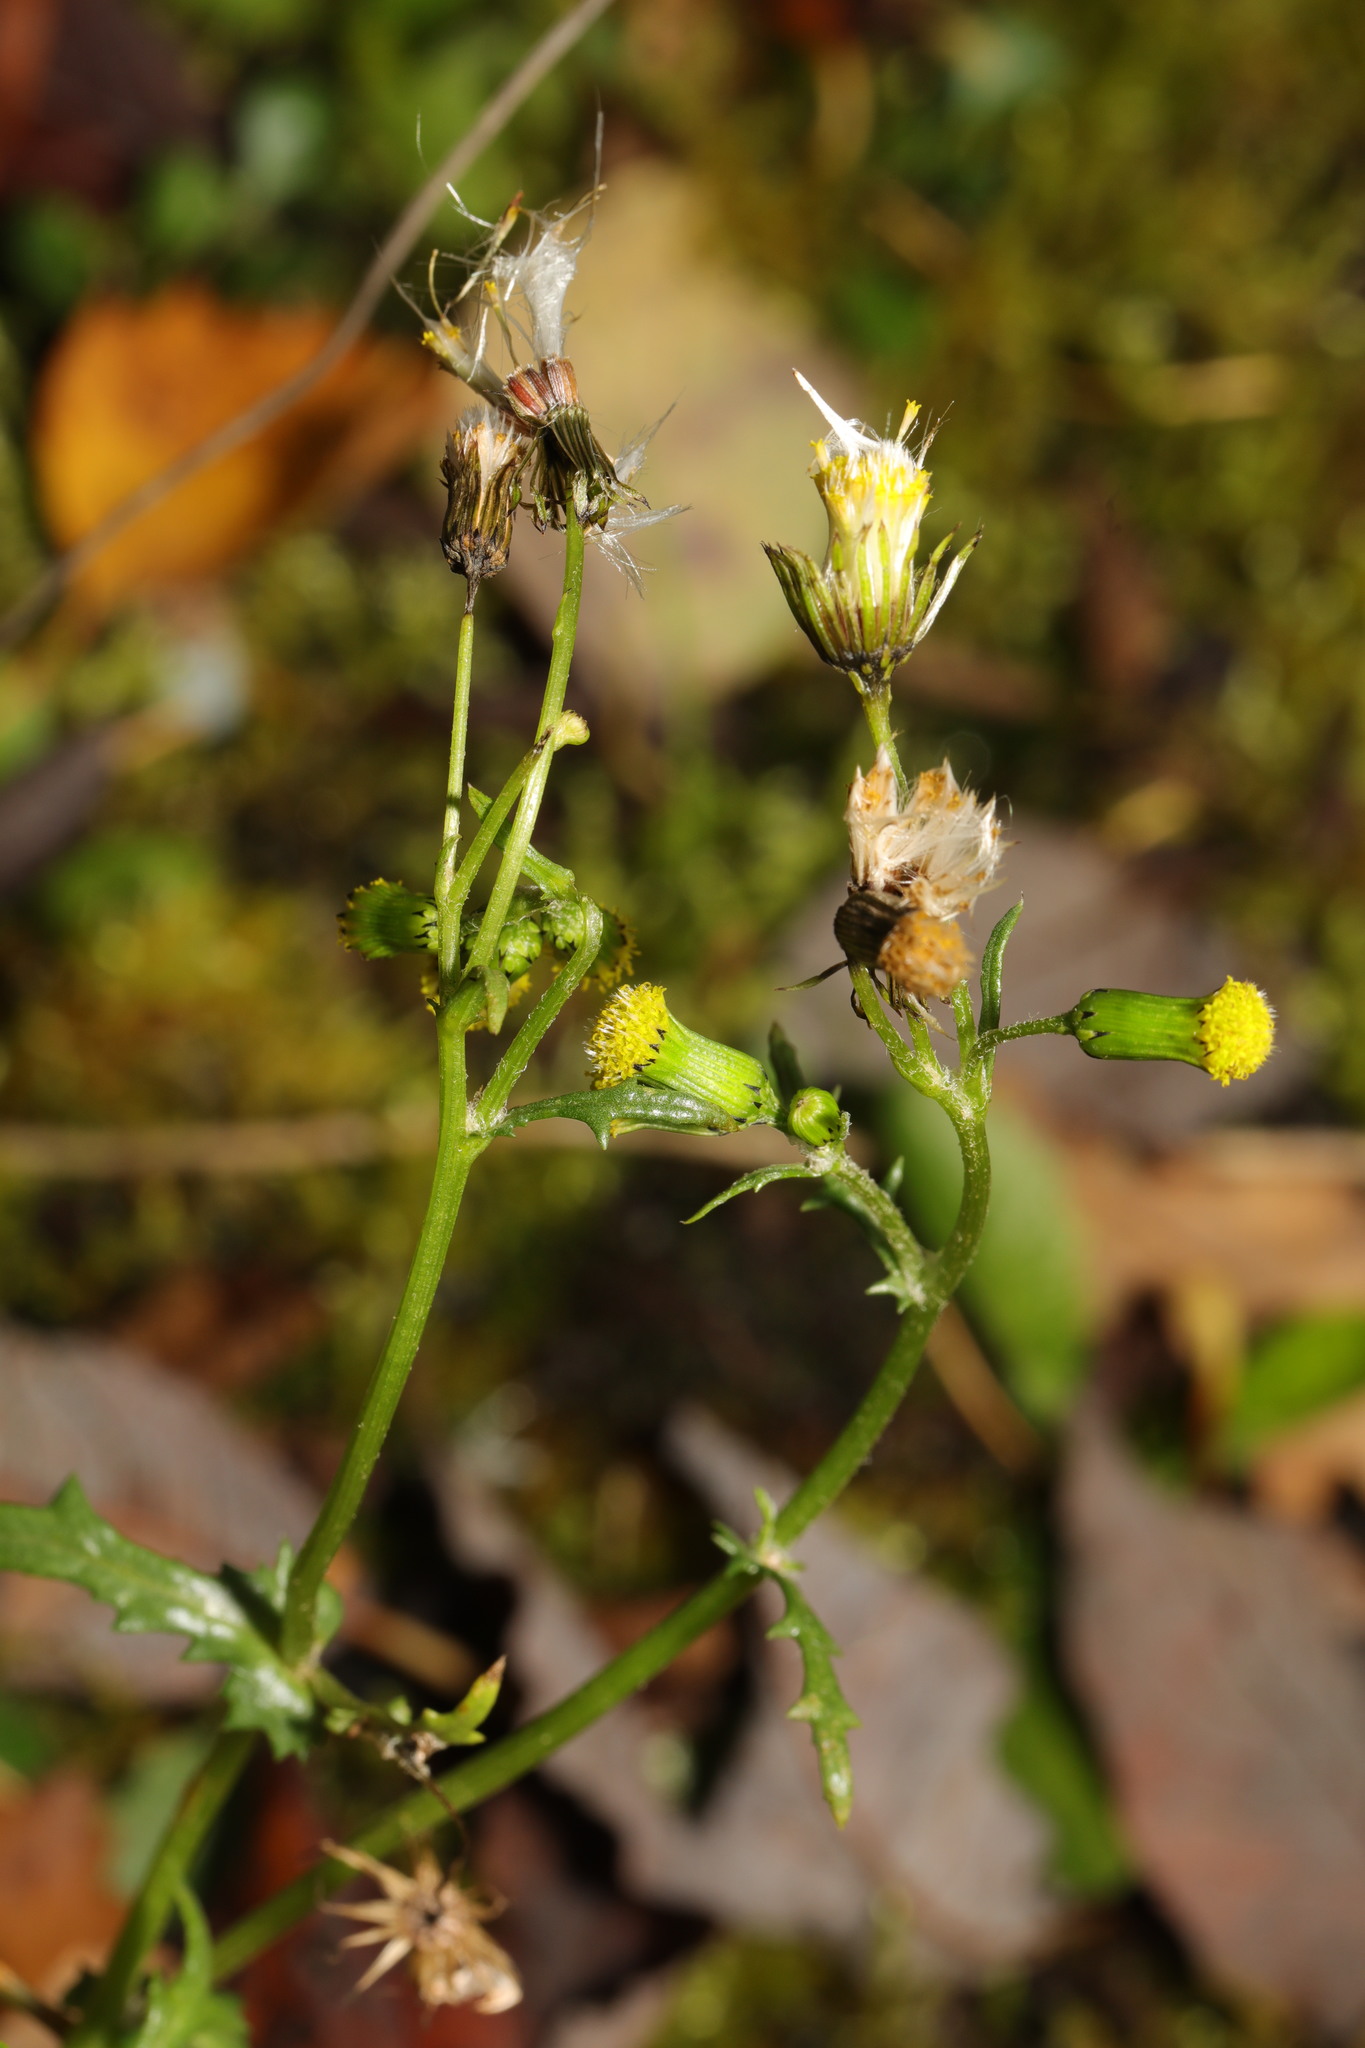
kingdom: Plantae
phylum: Tracheophyta
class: Magnoliopsida
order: Asterales
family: Asteraceae
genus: Senecio
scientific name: Senecio vulgaris
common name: Old-man-in-the-spring
